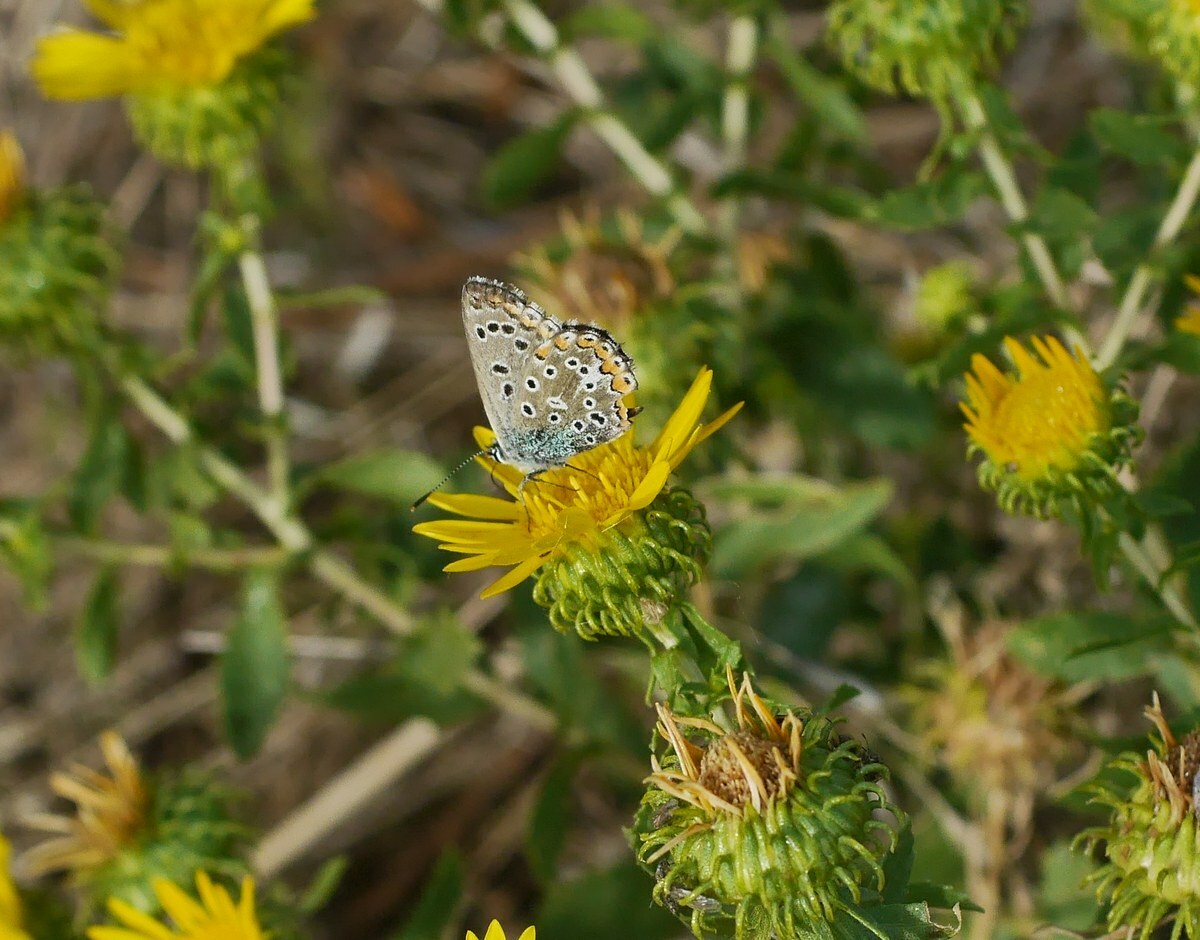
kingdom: Animalia
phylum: Arthropoda
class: Insecta
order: Lepidoptera
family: Lycaenidae
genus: Lysandra
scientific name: Lysandra bellargus
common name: Adonis blue
